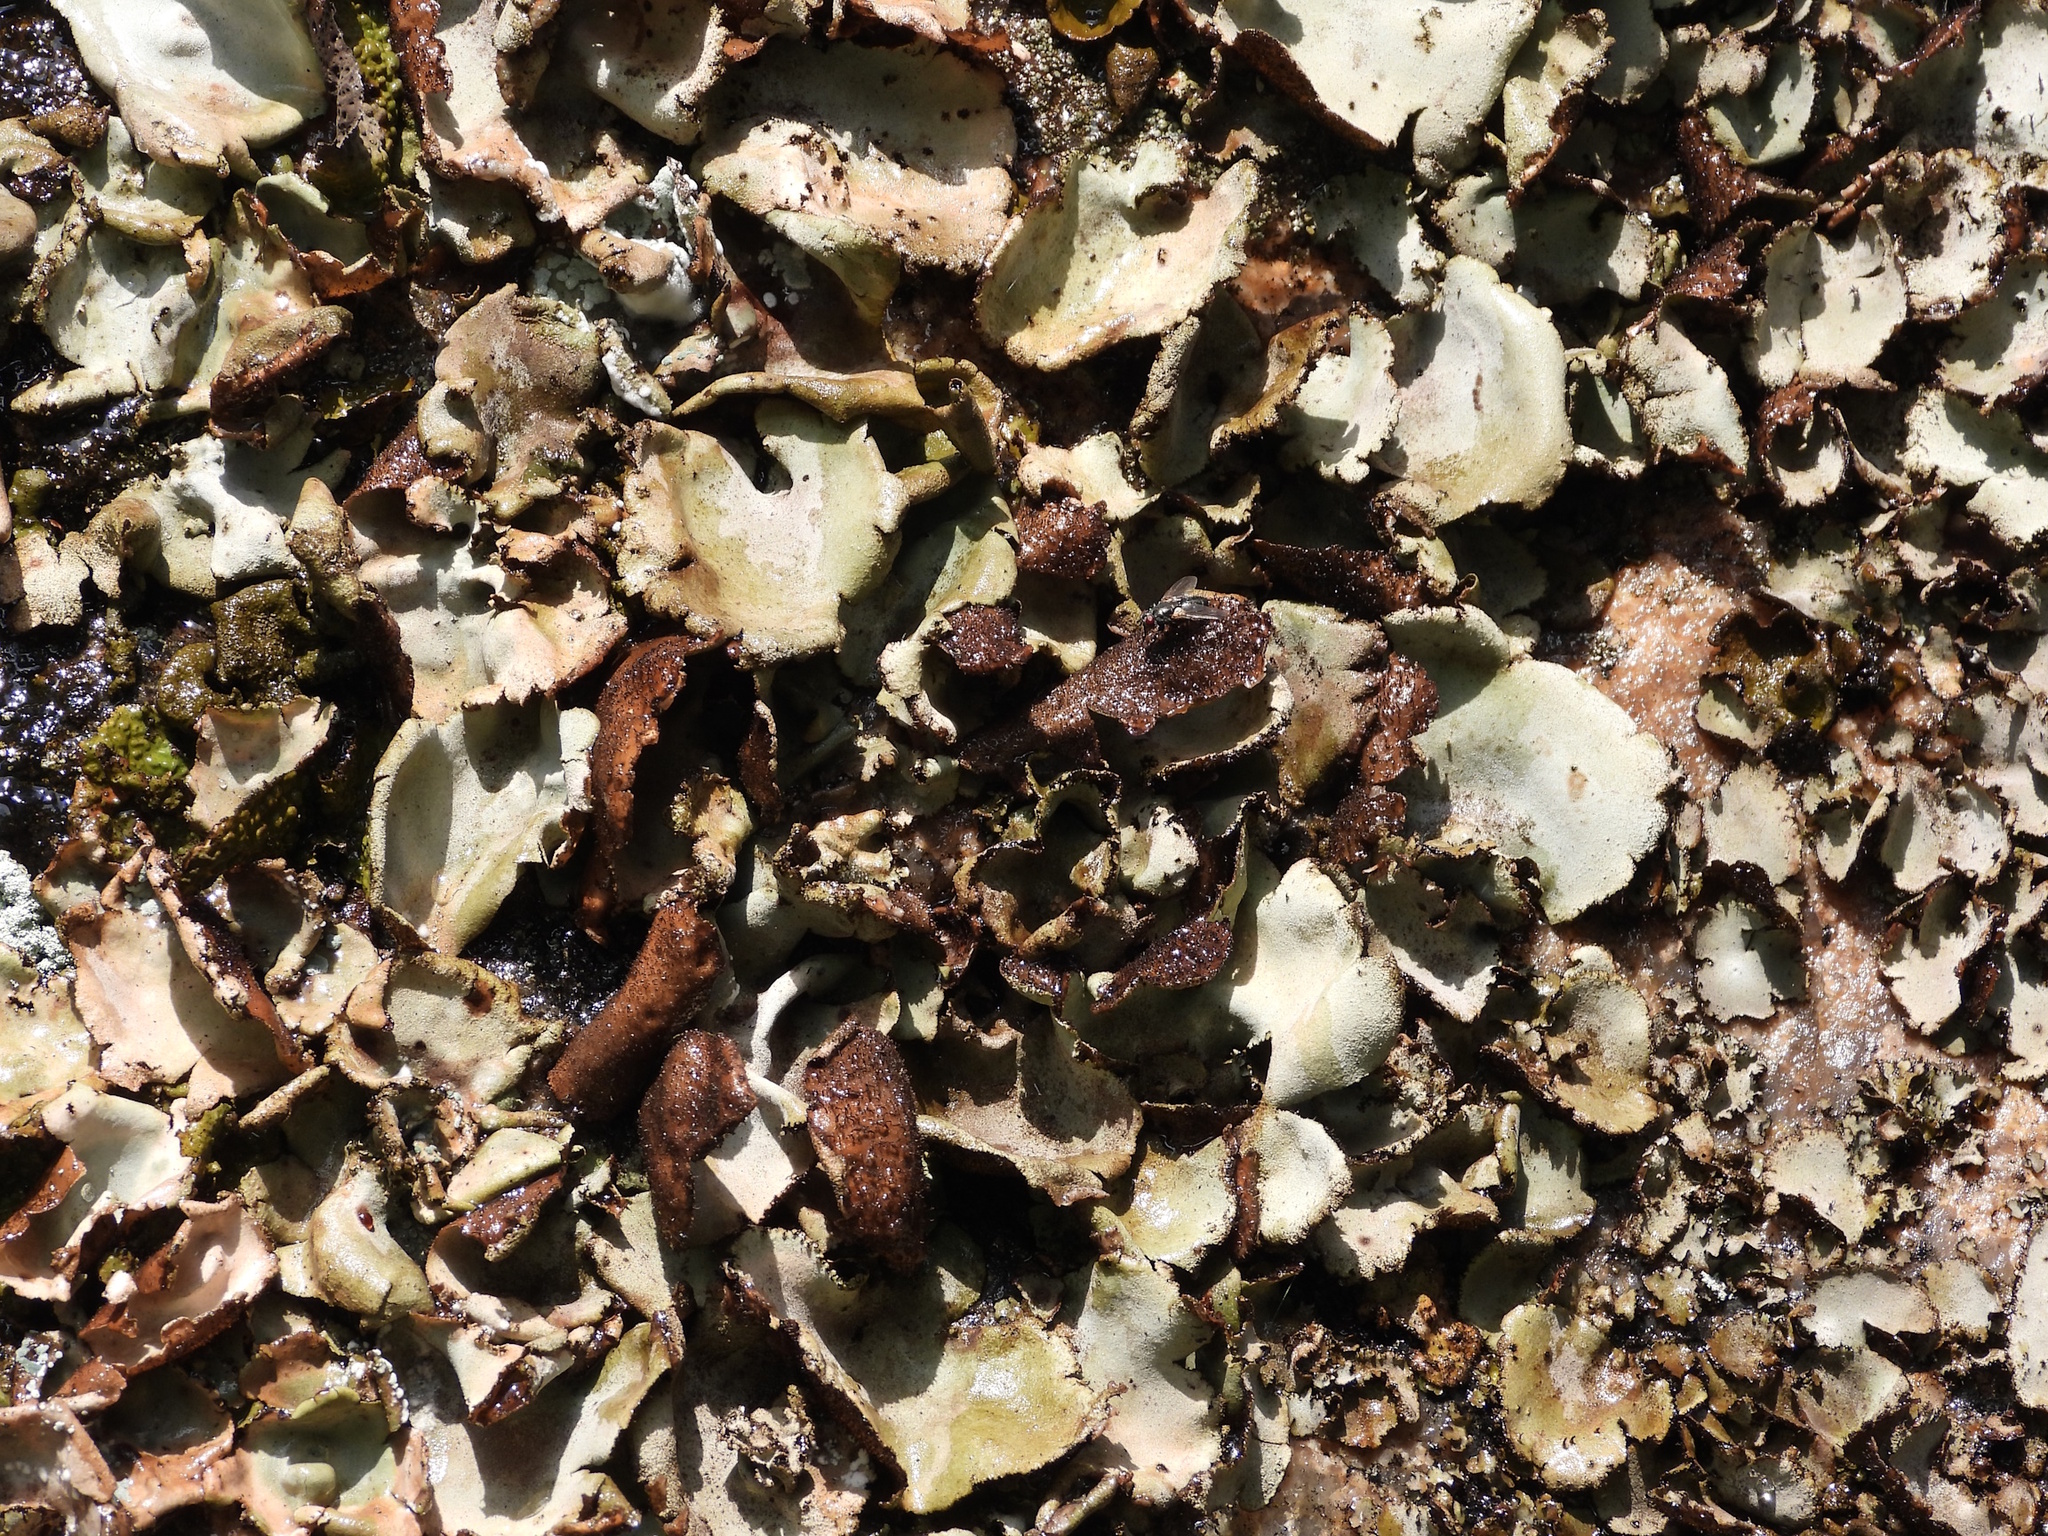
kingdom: Fungi
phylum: Ascomycota
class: Lecanoromycetes
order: Umbilicariales
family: Umbilicariaceae
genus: Umbilicaria
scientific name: Umbilicaria hirsuta
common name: Granulating rocktripe lichen
